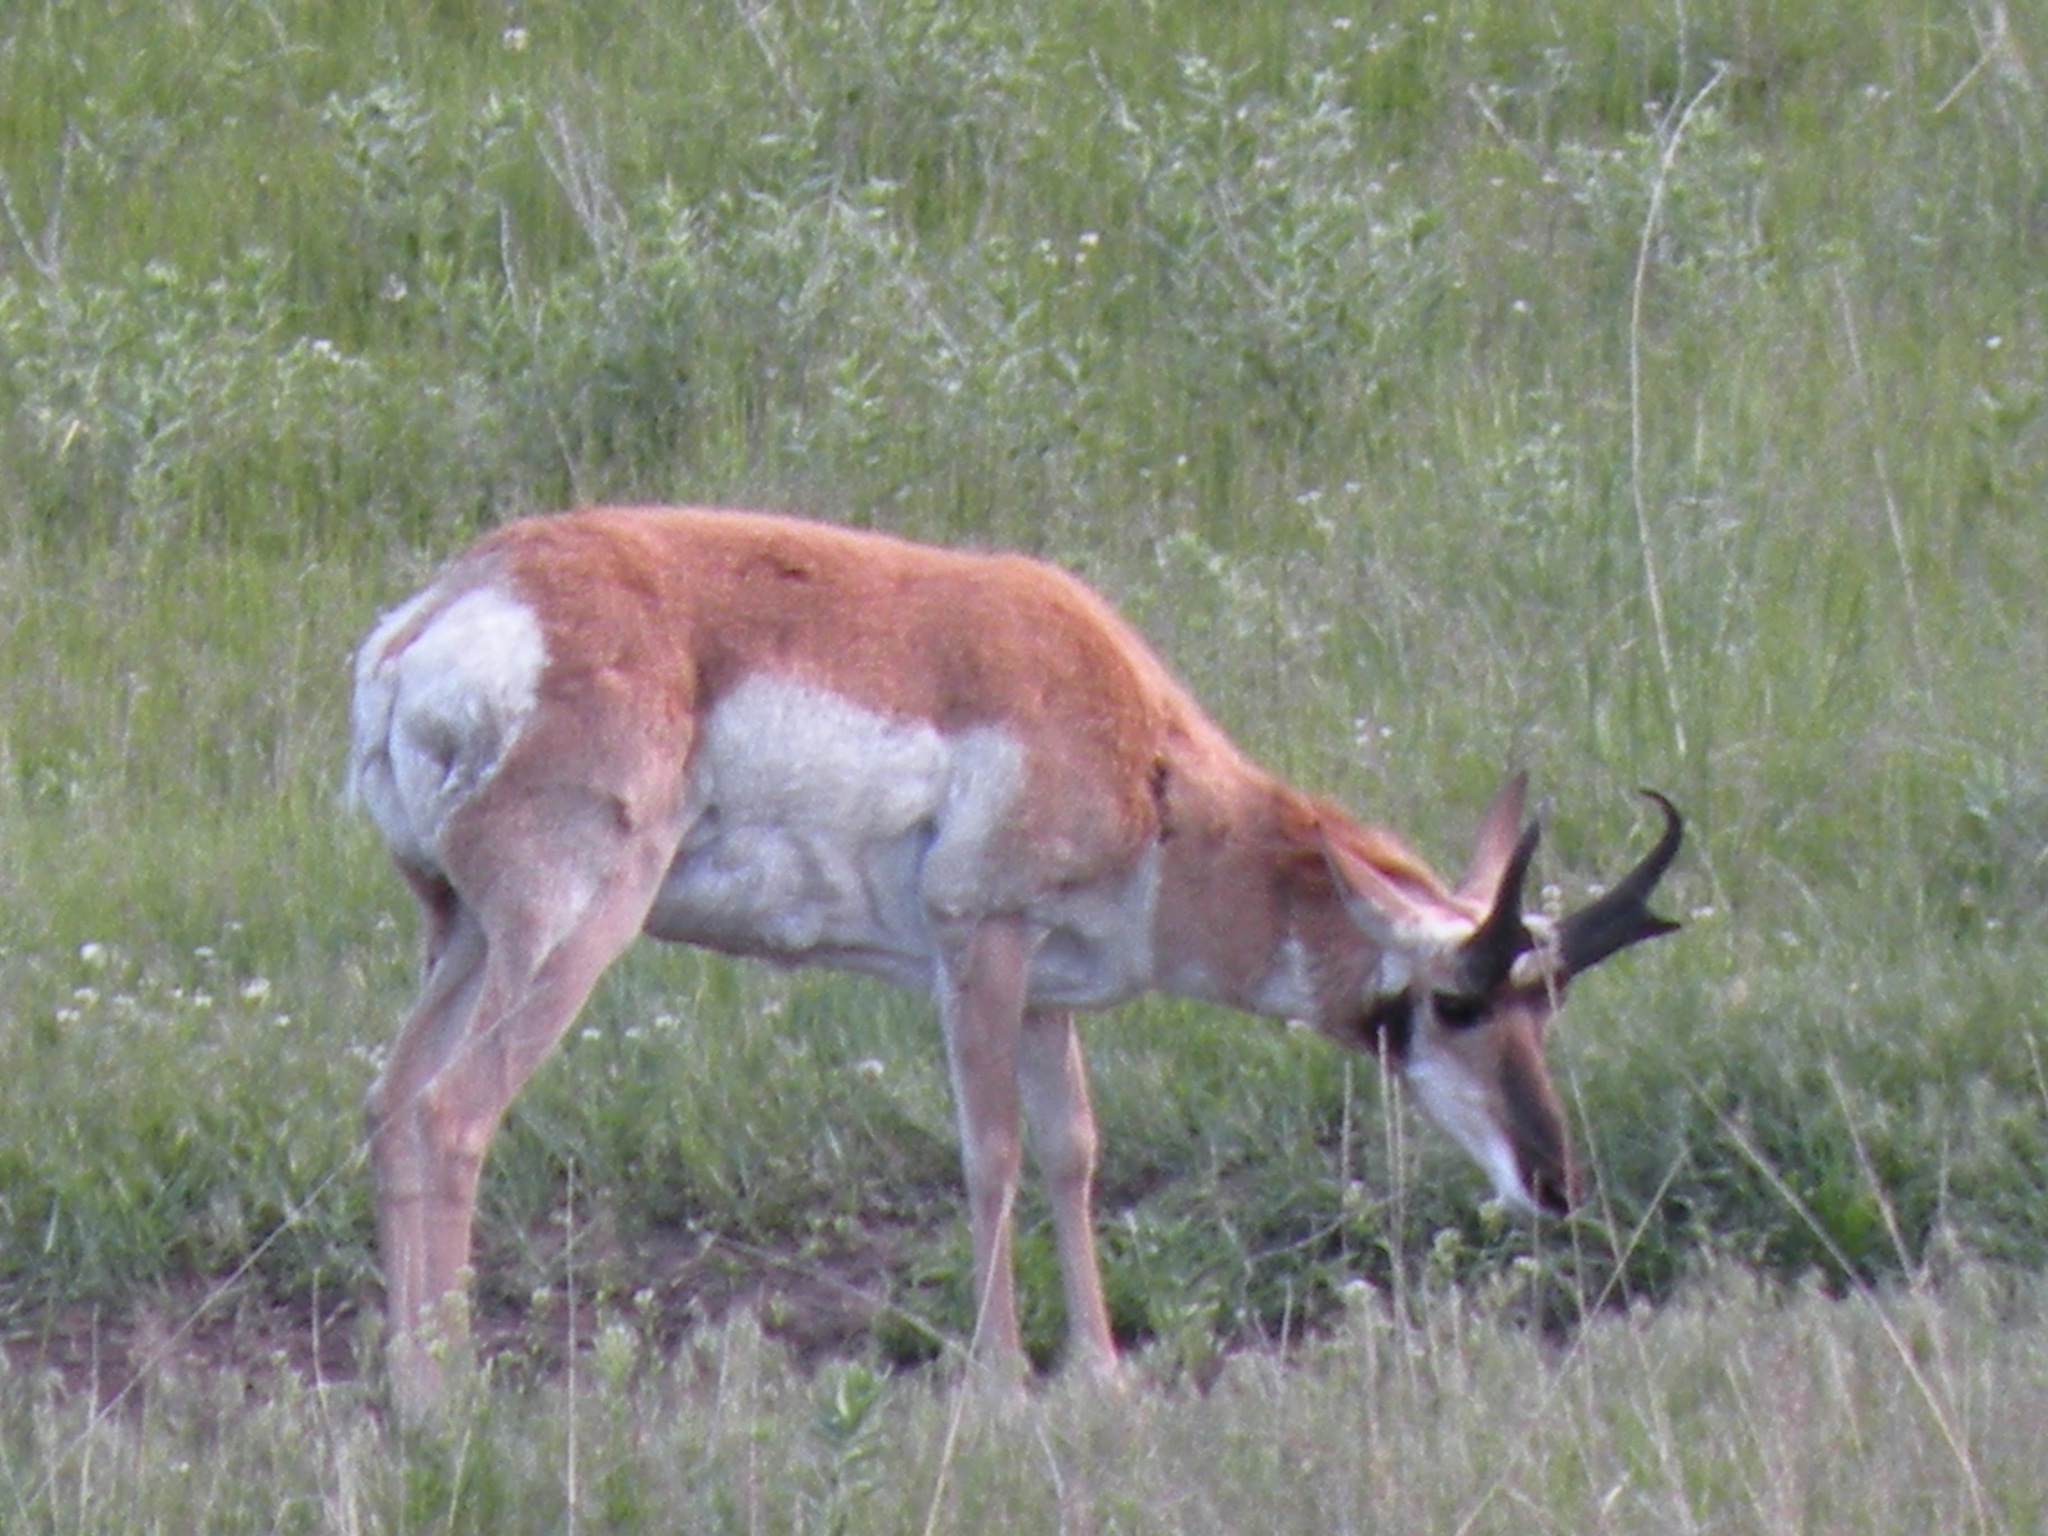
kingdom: Animalia
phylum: Chordata
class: Mammalia
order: Artiodactyla
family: Antilocapridae
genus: Antilocapra
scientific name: Antilocapra americana
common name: Pronghorn
